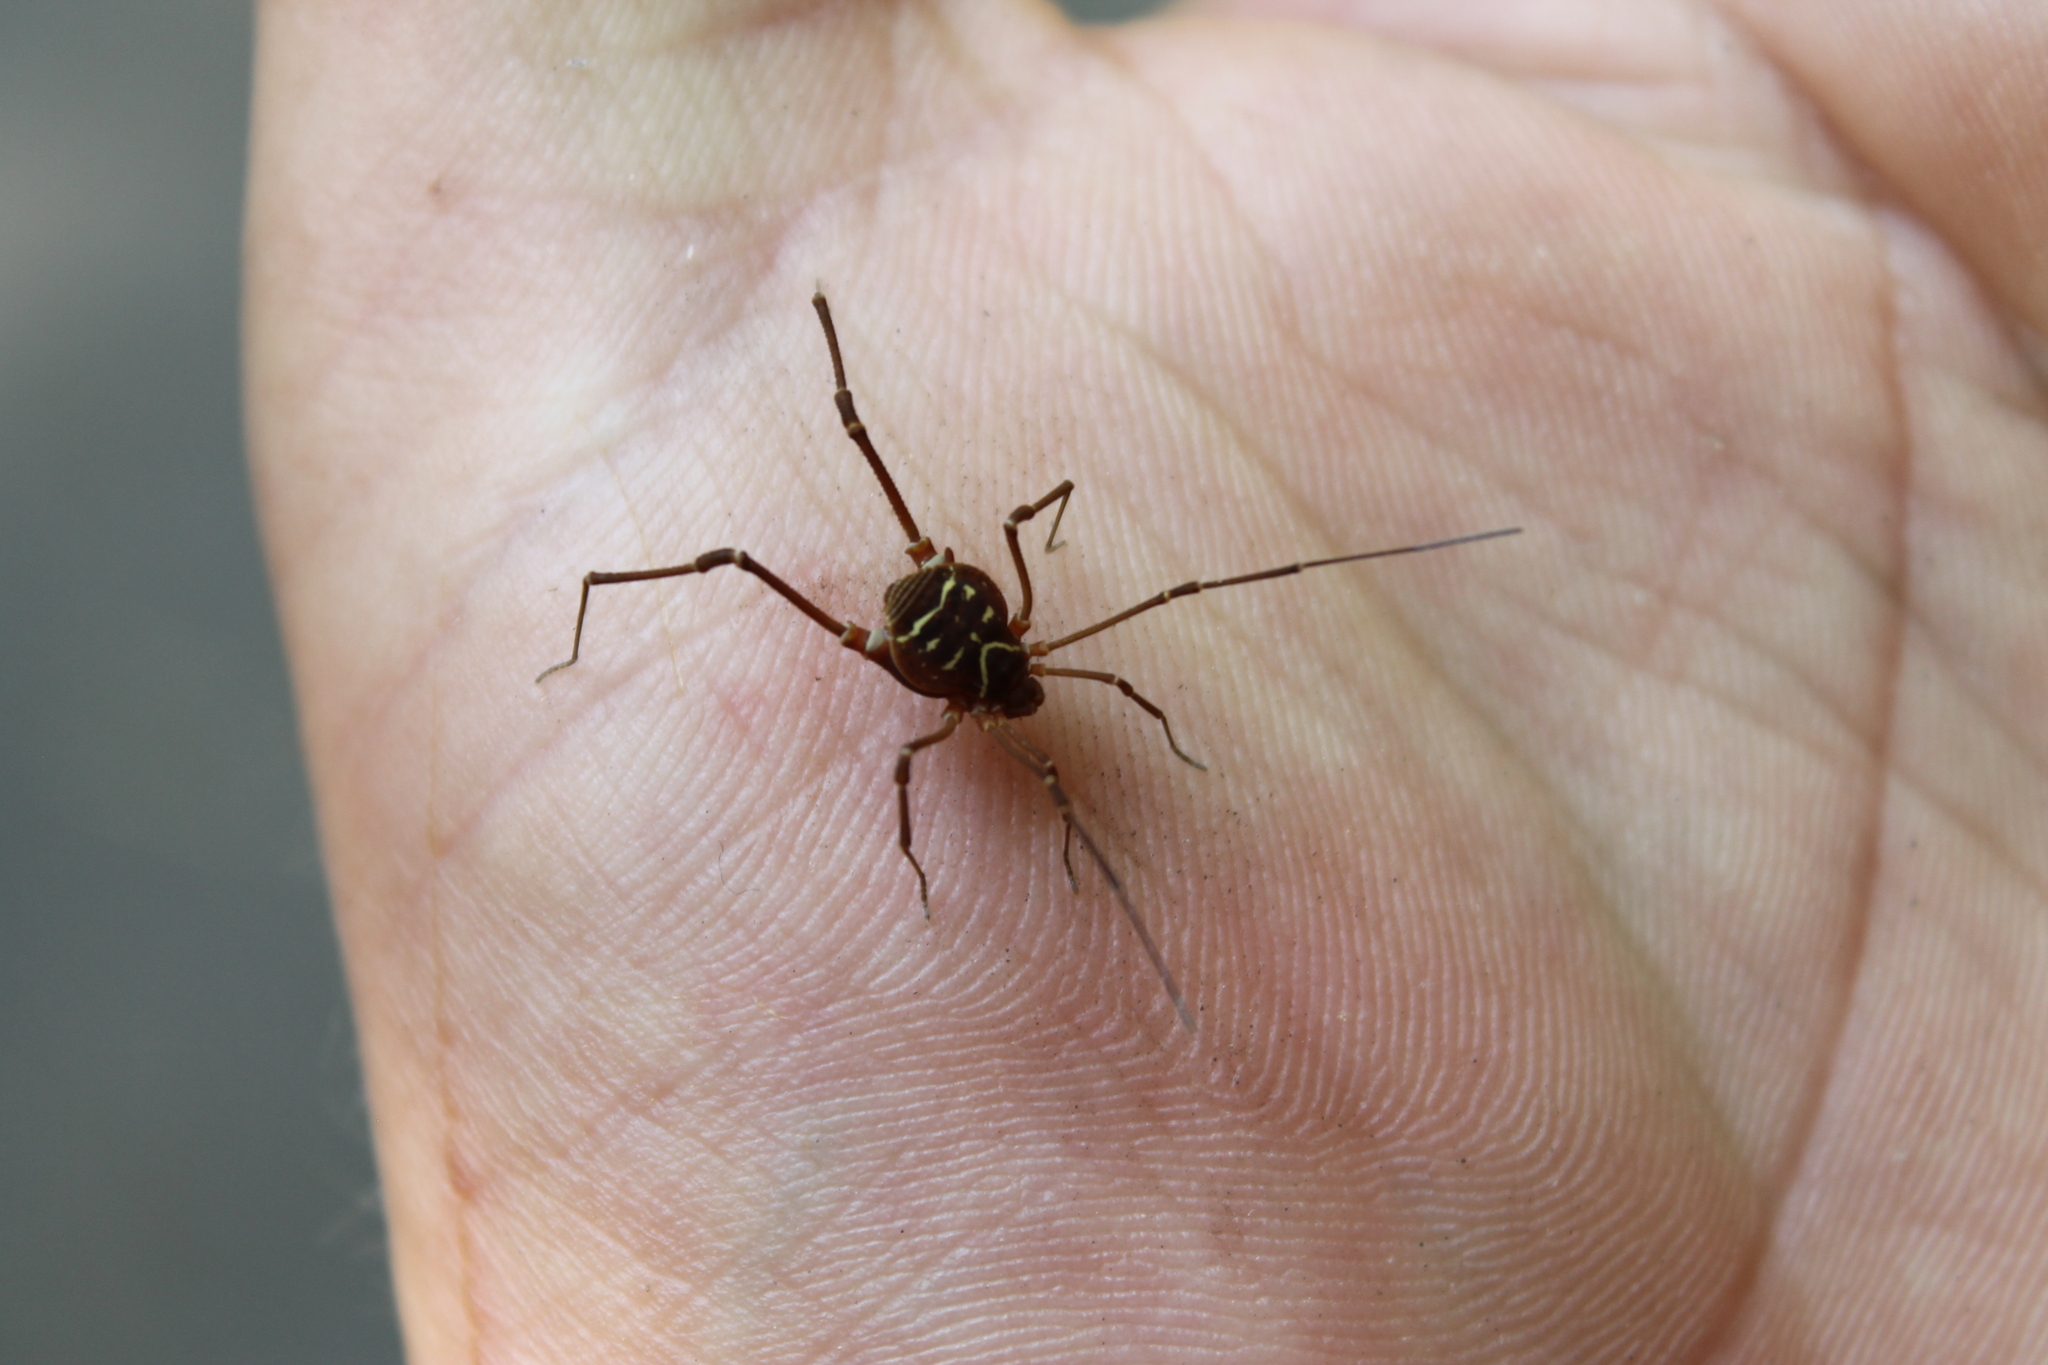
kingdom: Animalia
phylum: Arthropoda
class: Arachnida
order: Opiliones
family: Cosmetidae
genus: Libitioides
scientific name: Libitioides sayi
